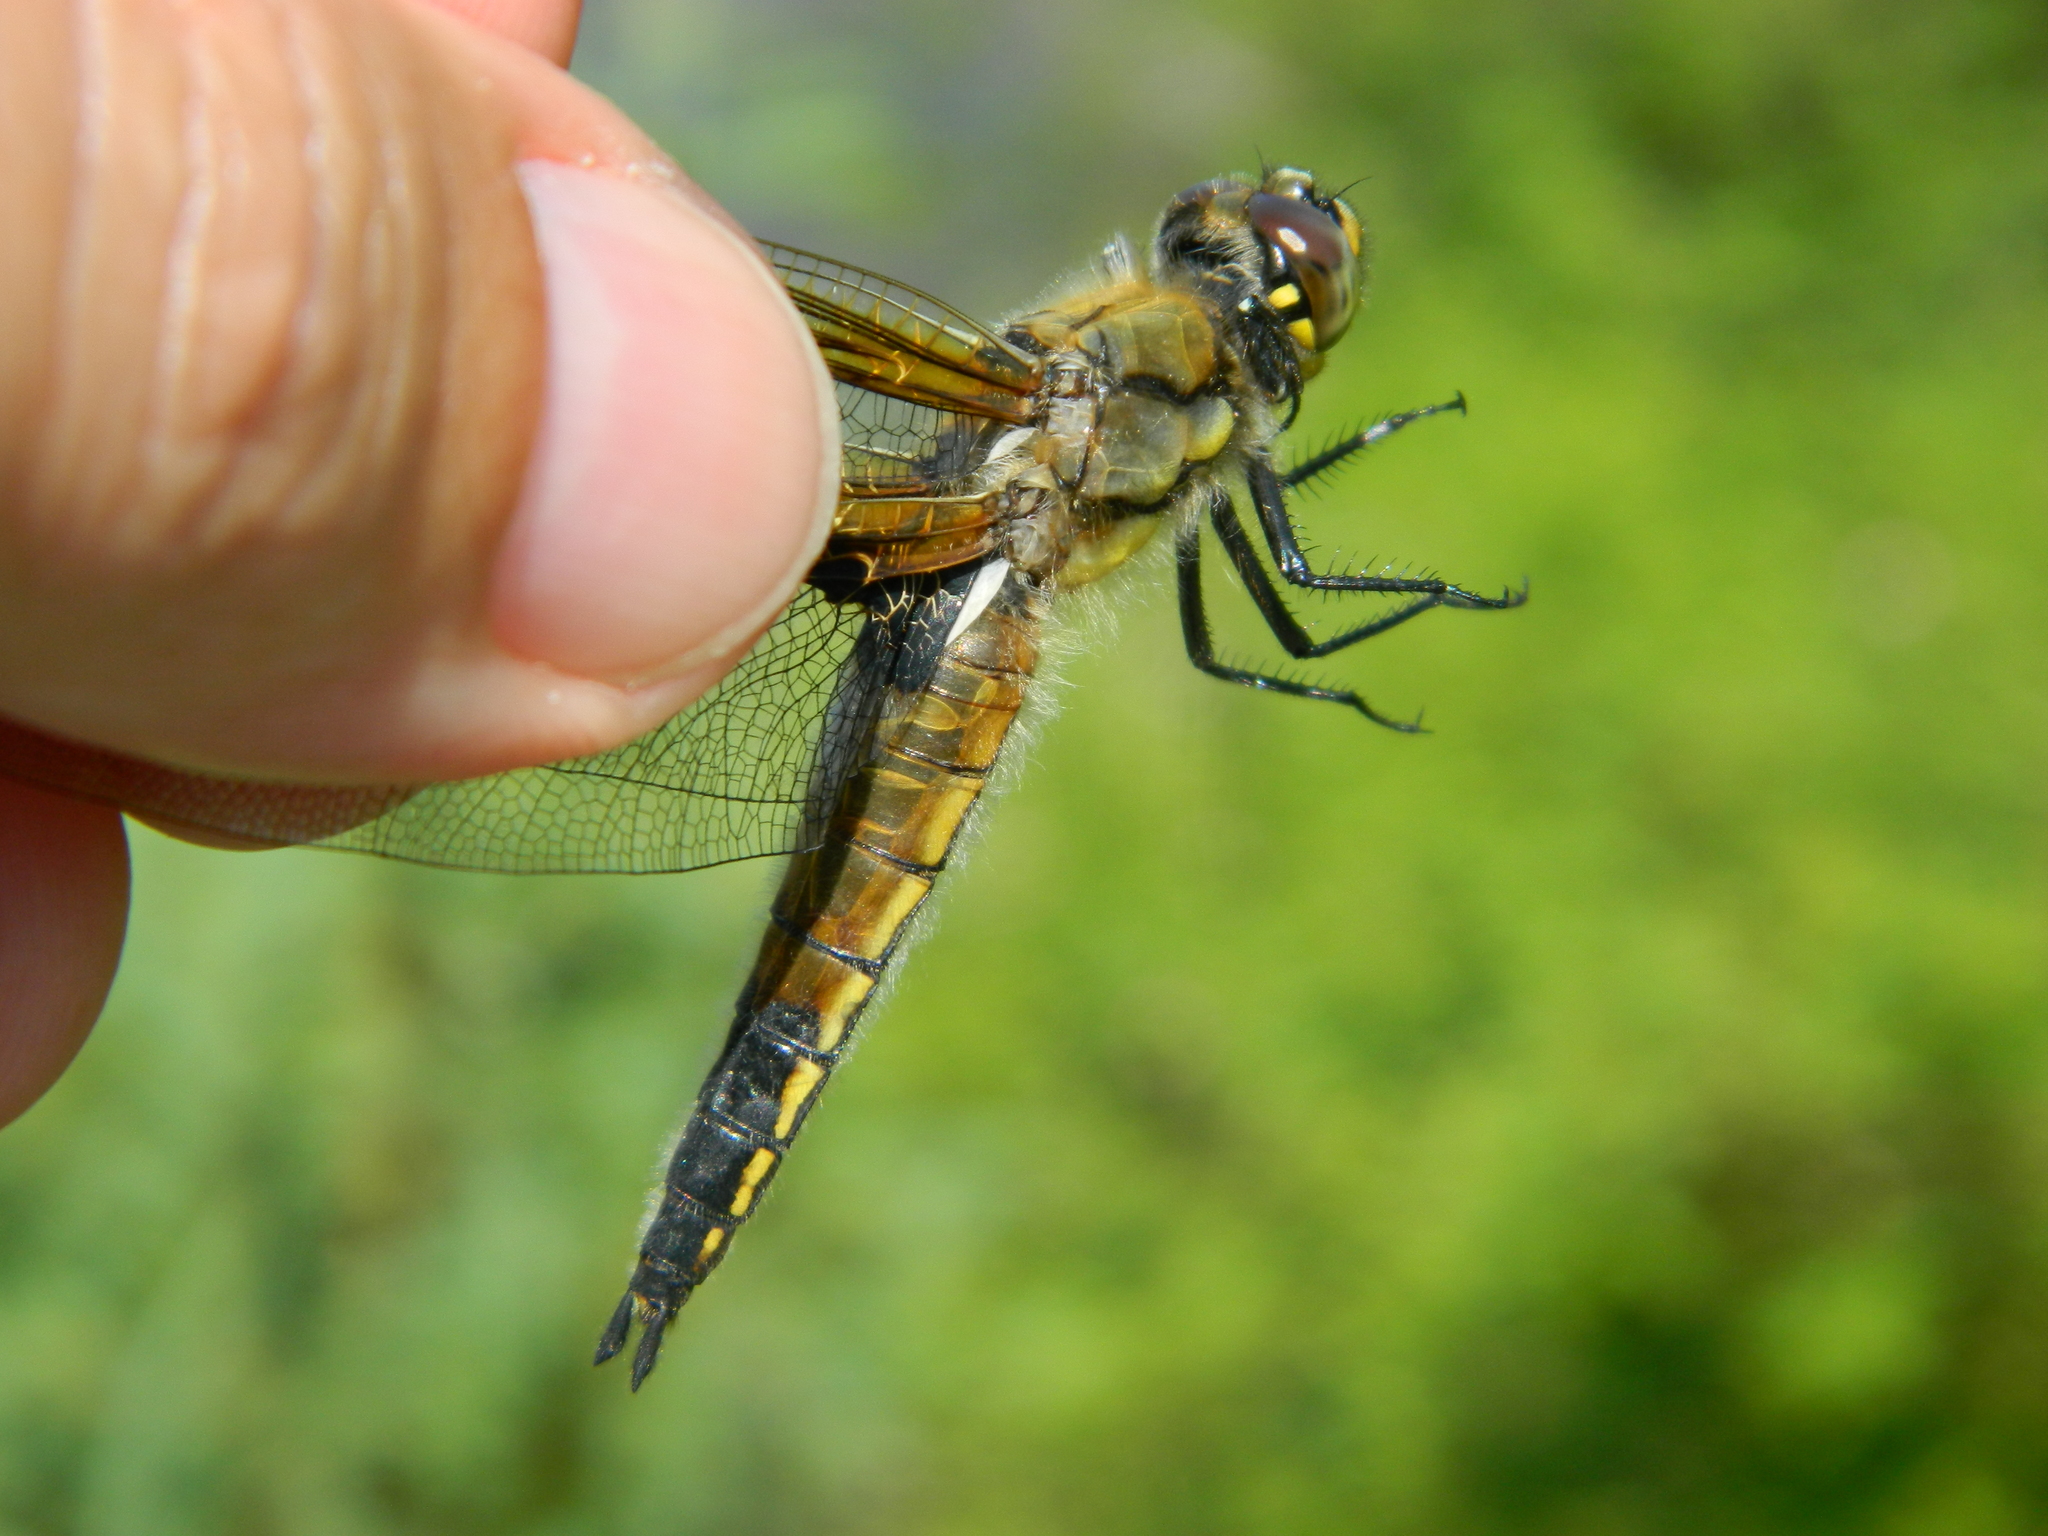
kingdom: Animalia
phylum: Arthropoda
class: Insecta
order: Odonata
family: Libellulidae
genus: Libellula
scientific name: Libellula quadrimaculata
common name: Four-spotted chaser
